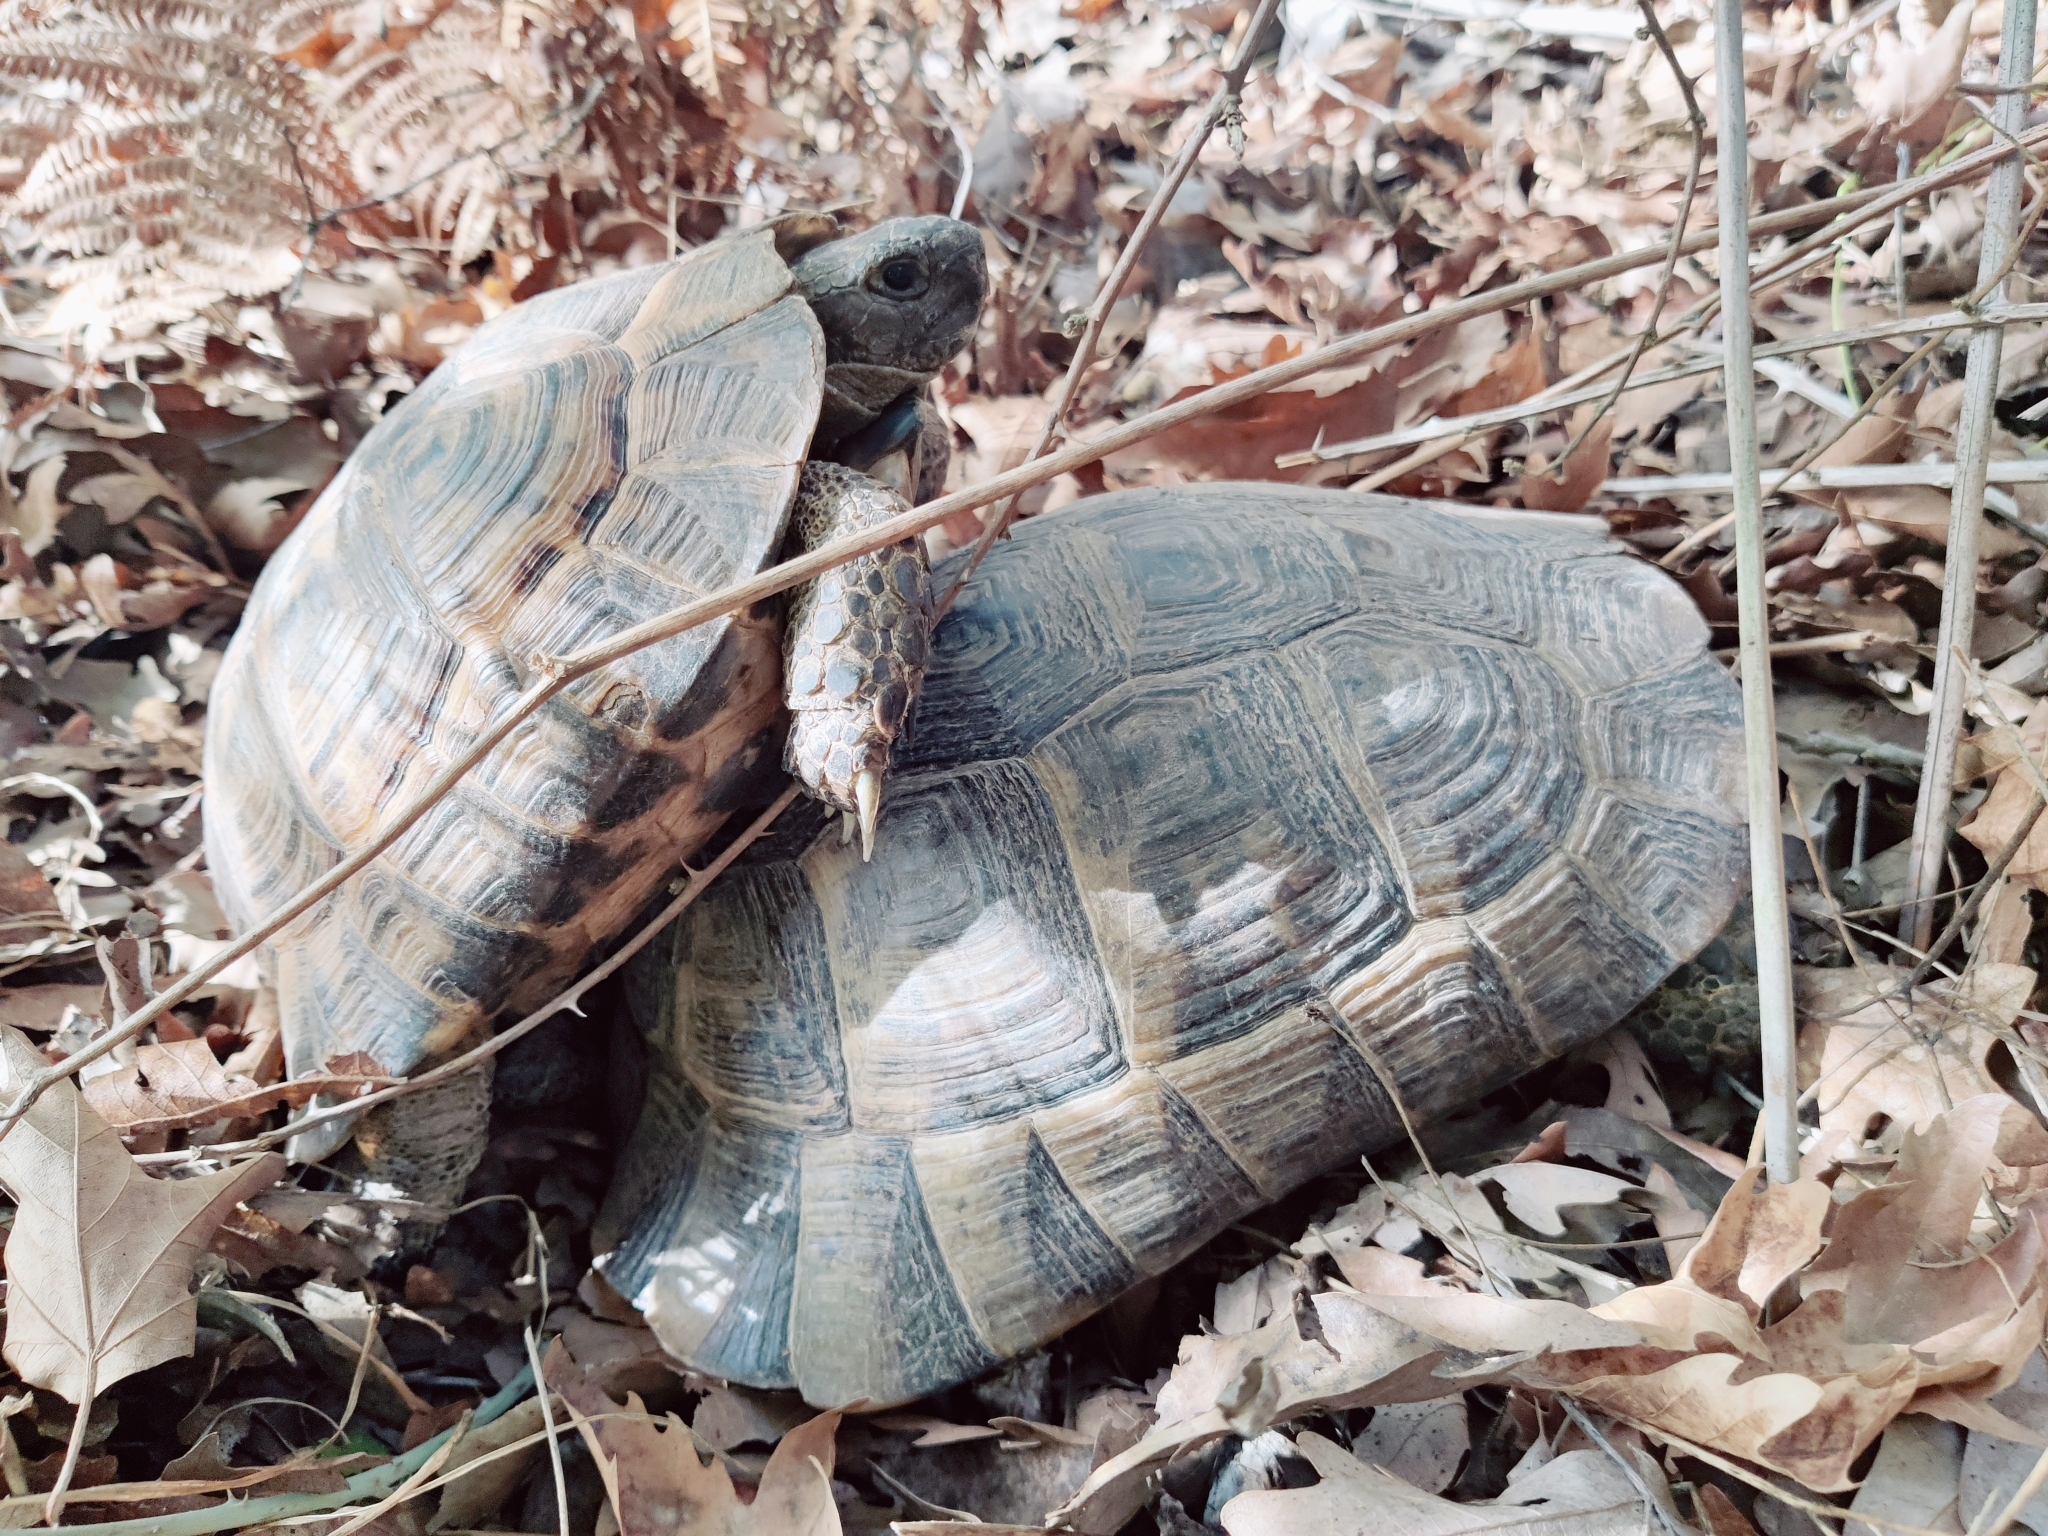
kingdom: Animalia
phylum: Chordata
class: Testudines
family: Testudinidae
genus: Testudo
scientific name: Testudo graeca
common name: Common tortoise
